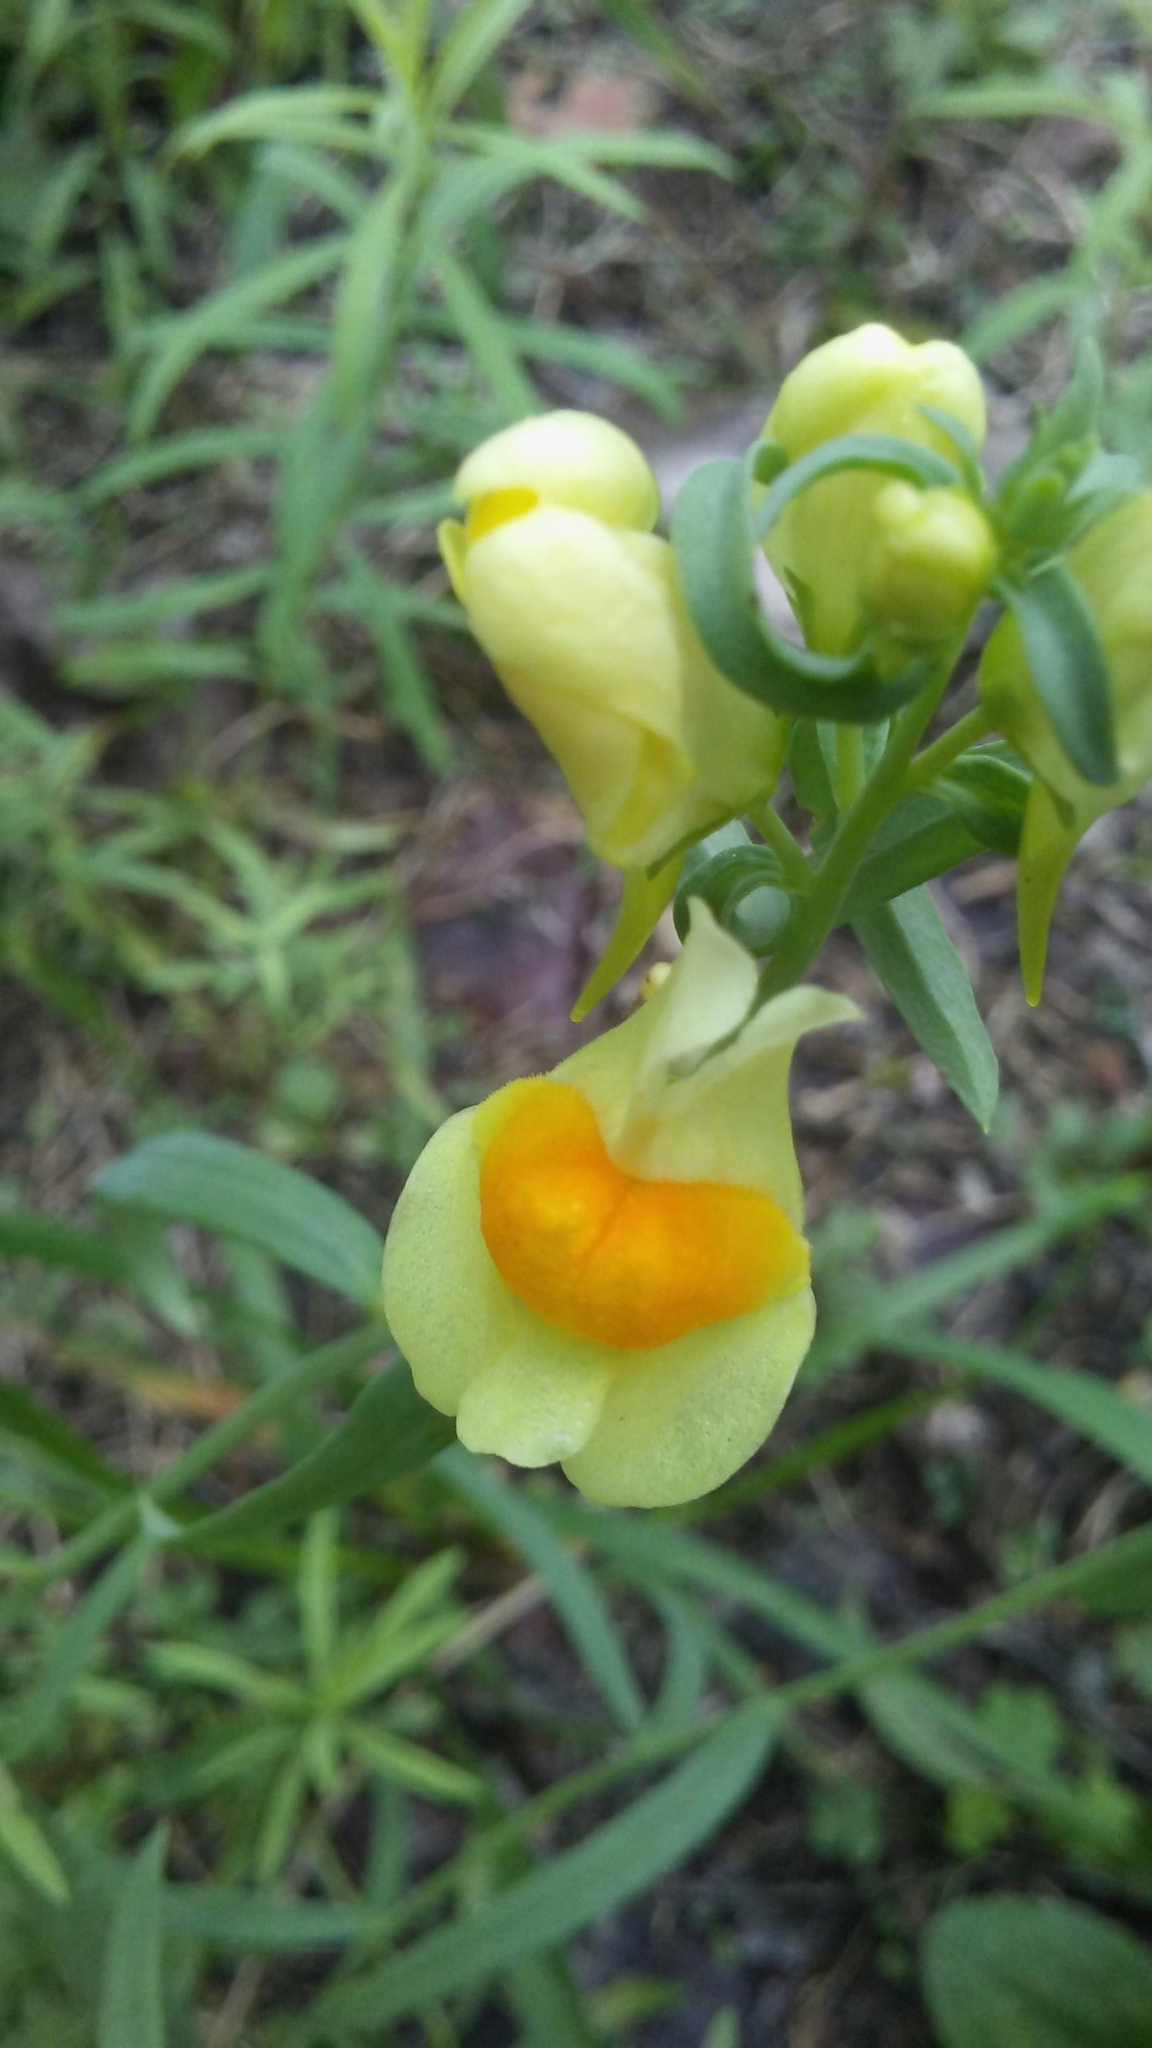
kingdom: Plantae
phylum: Tracheophyta
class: Magnoliopsida
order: Lamiales
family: Plantaginaceae
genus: Linaria
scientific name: Linaria vulgaris
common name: Butter and eggs
